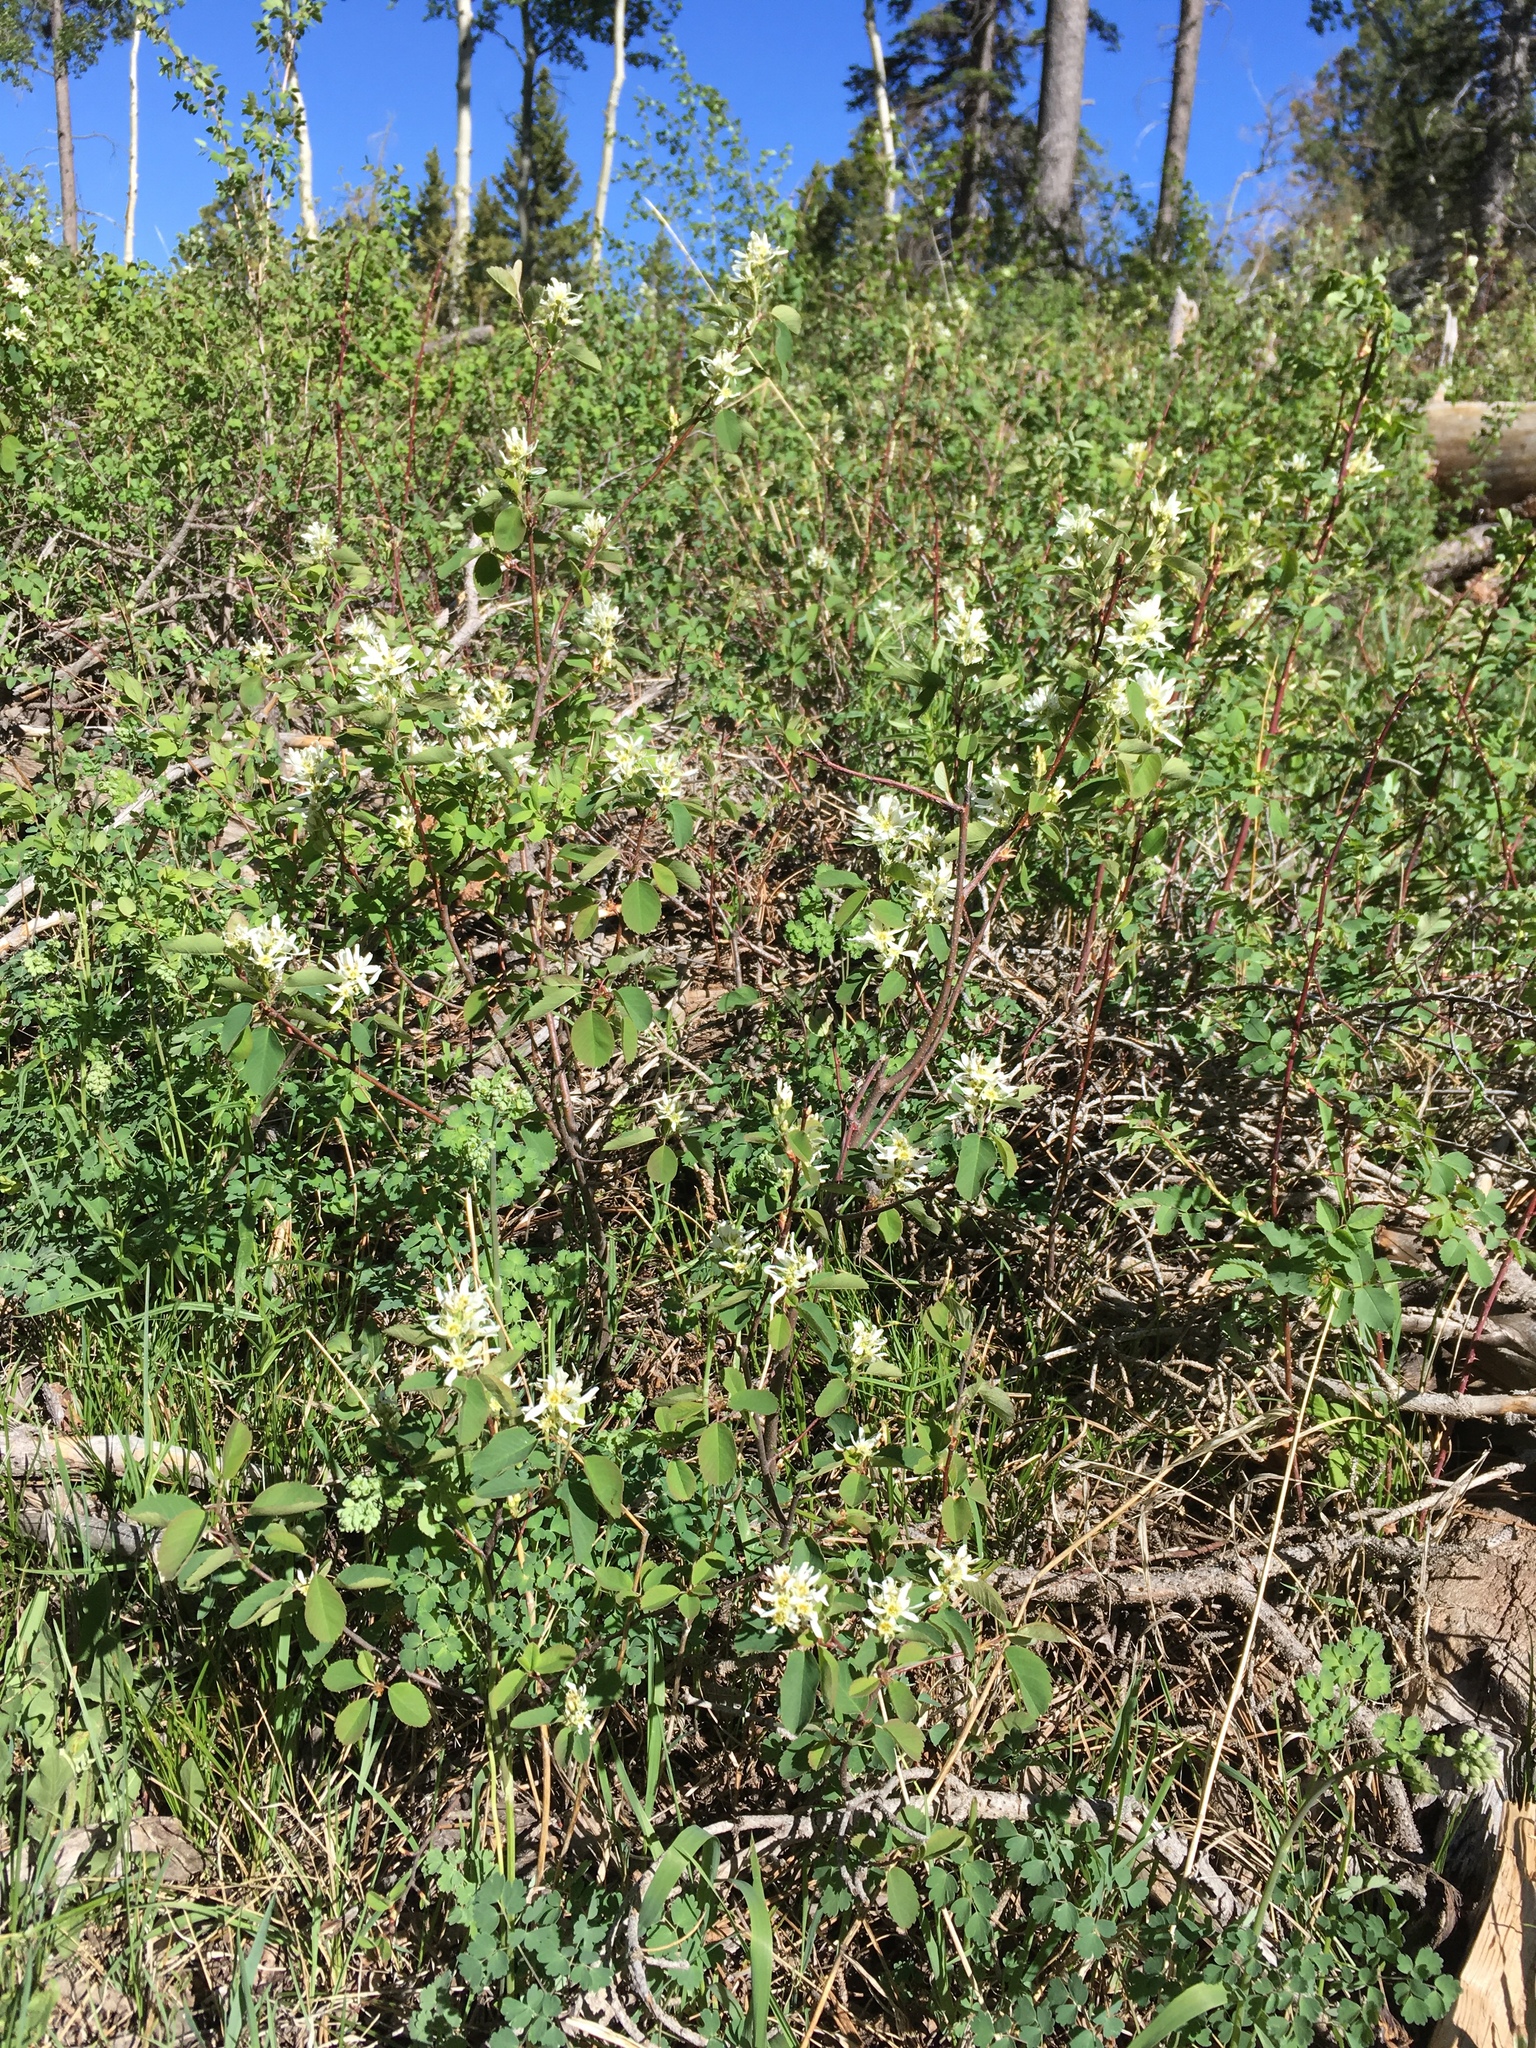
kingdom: Plantae
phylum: Tracheophyta
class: Magnoliopsida
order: Rosales
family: Rosaceae
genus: Amelanchier
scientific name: Amelanchier alnifolia
